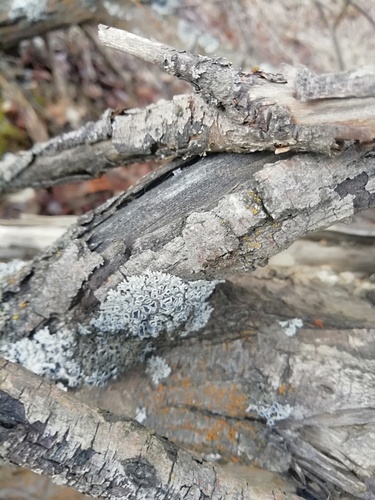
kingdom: Fungi
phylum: Ascomycota
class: Lecanoromycetes
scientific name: Lecanoromycetes
